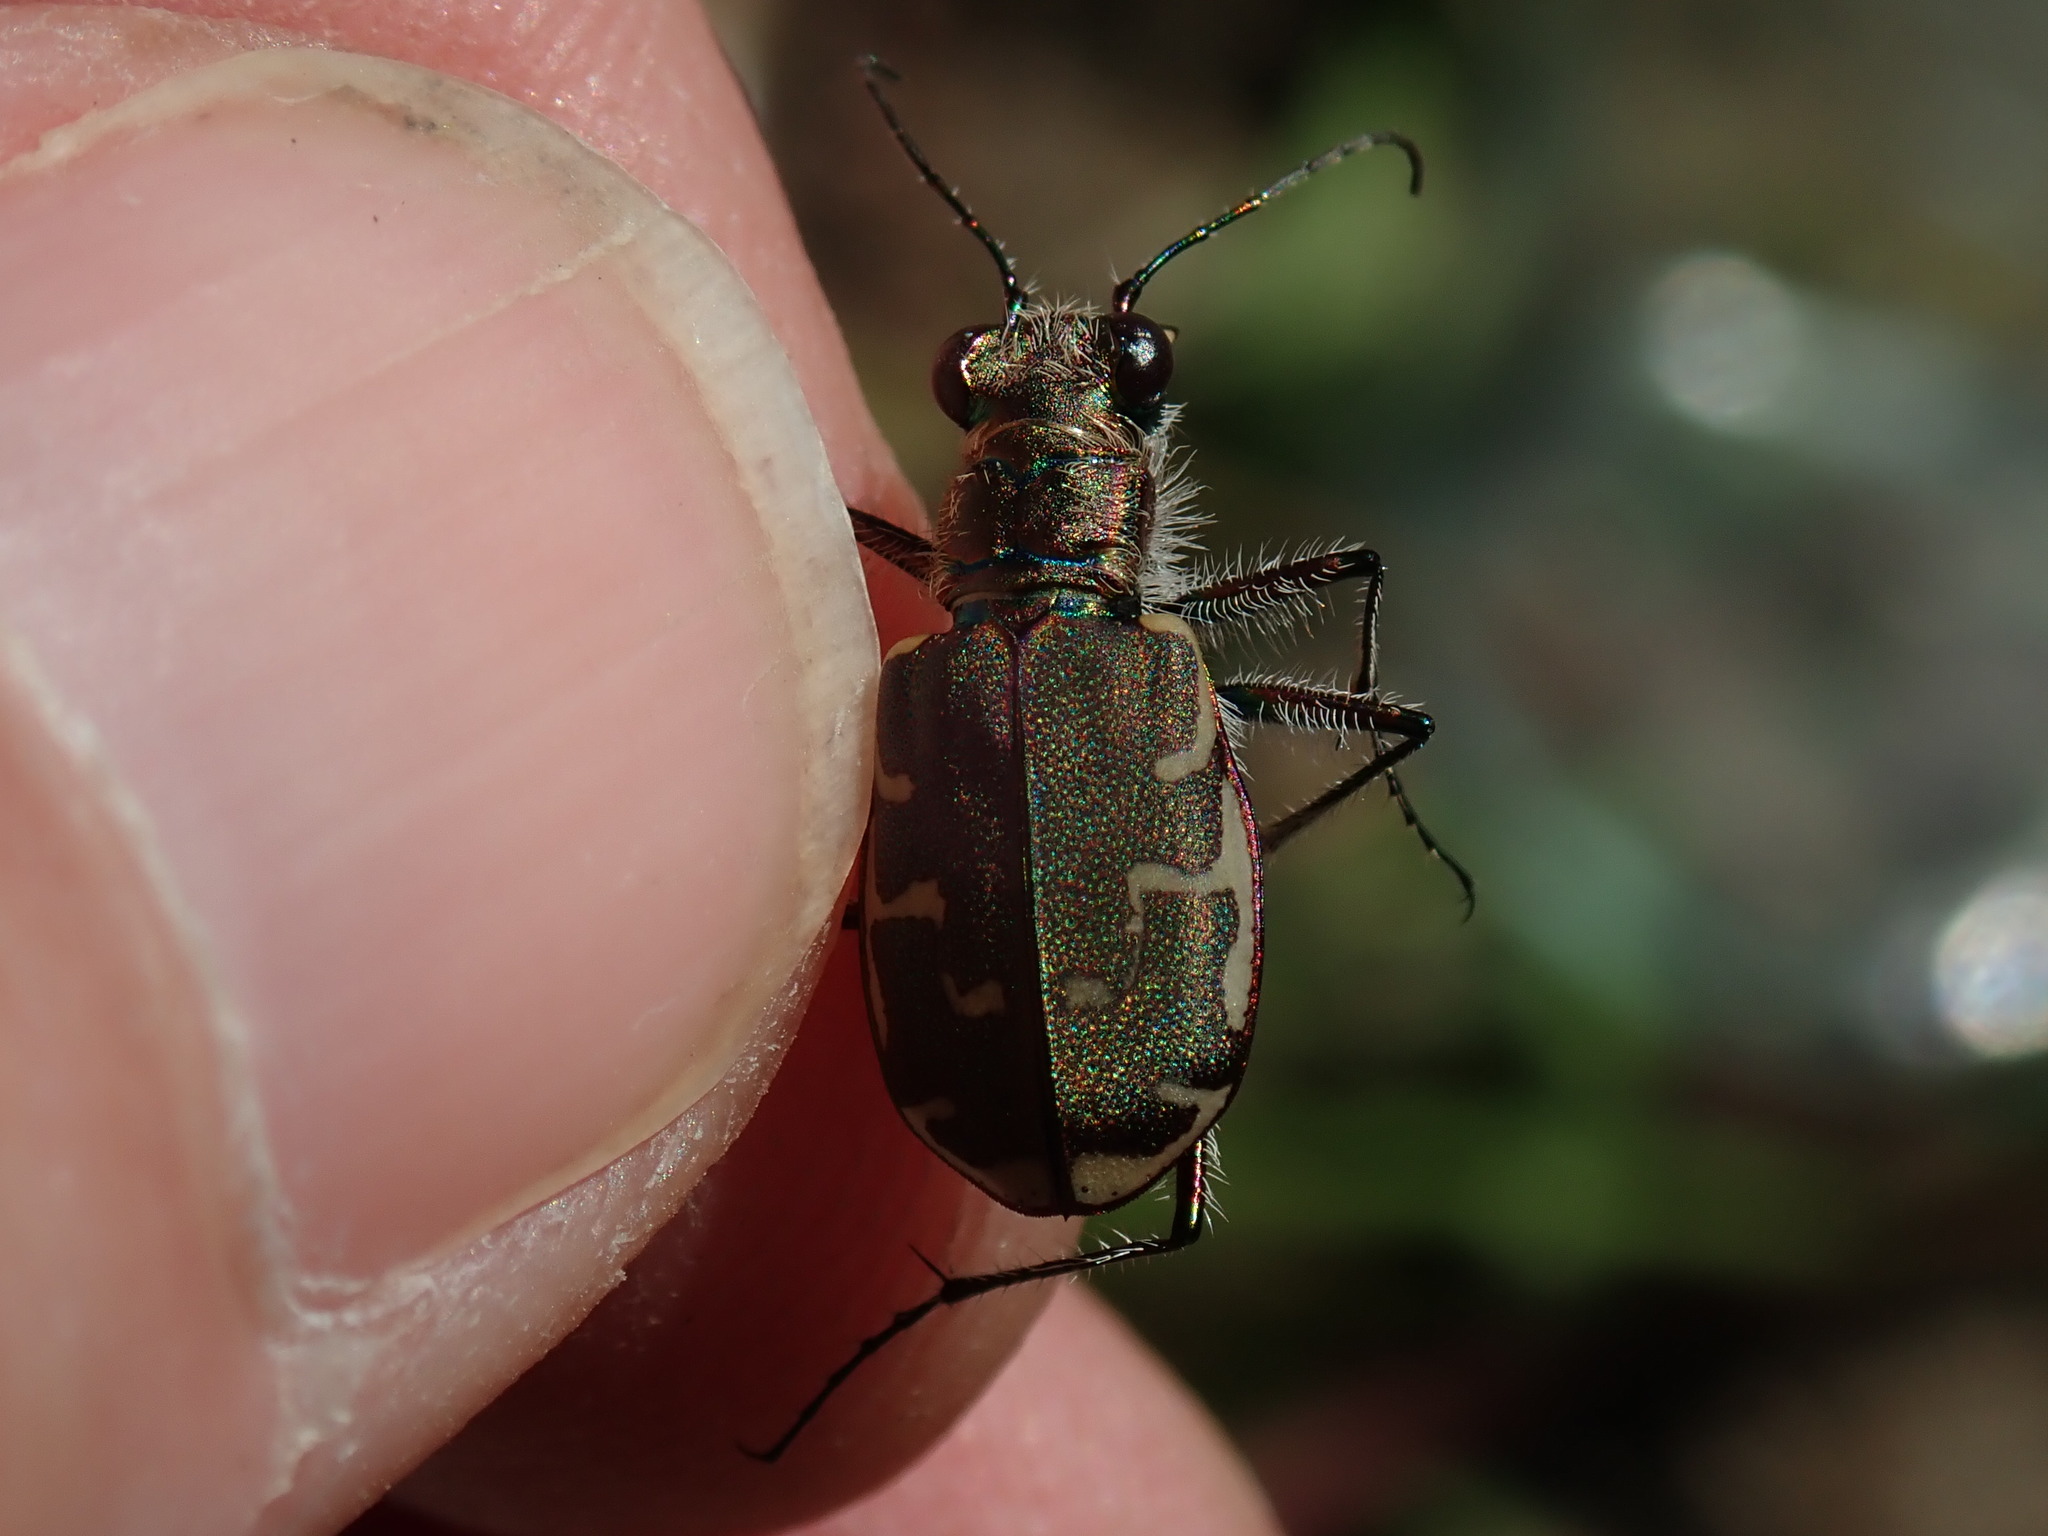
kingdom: Animalia
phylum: Arthropoda
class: Insecta
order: Coleoptera
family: Carabidae
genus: Cicindela
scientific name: Cicindela repanda
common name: Bronzed tiger beetle
